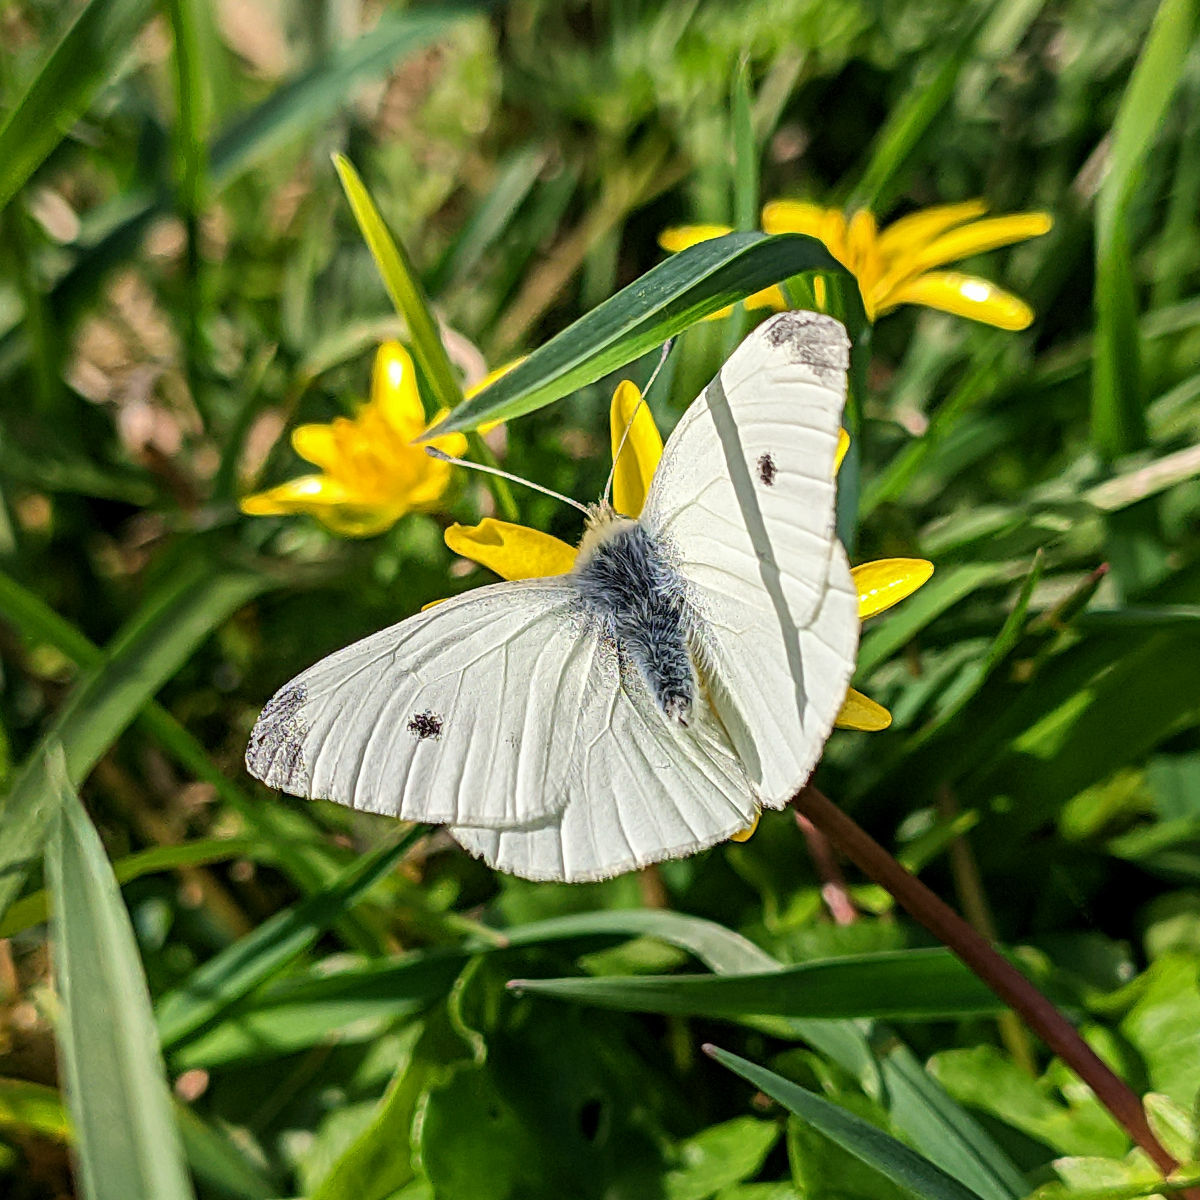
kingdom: Animalia
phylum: Arthropoda
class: Insecta
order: Lepidoptera
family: Pieridae
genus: Pieris
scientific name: Pieris rapae
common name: Small white
